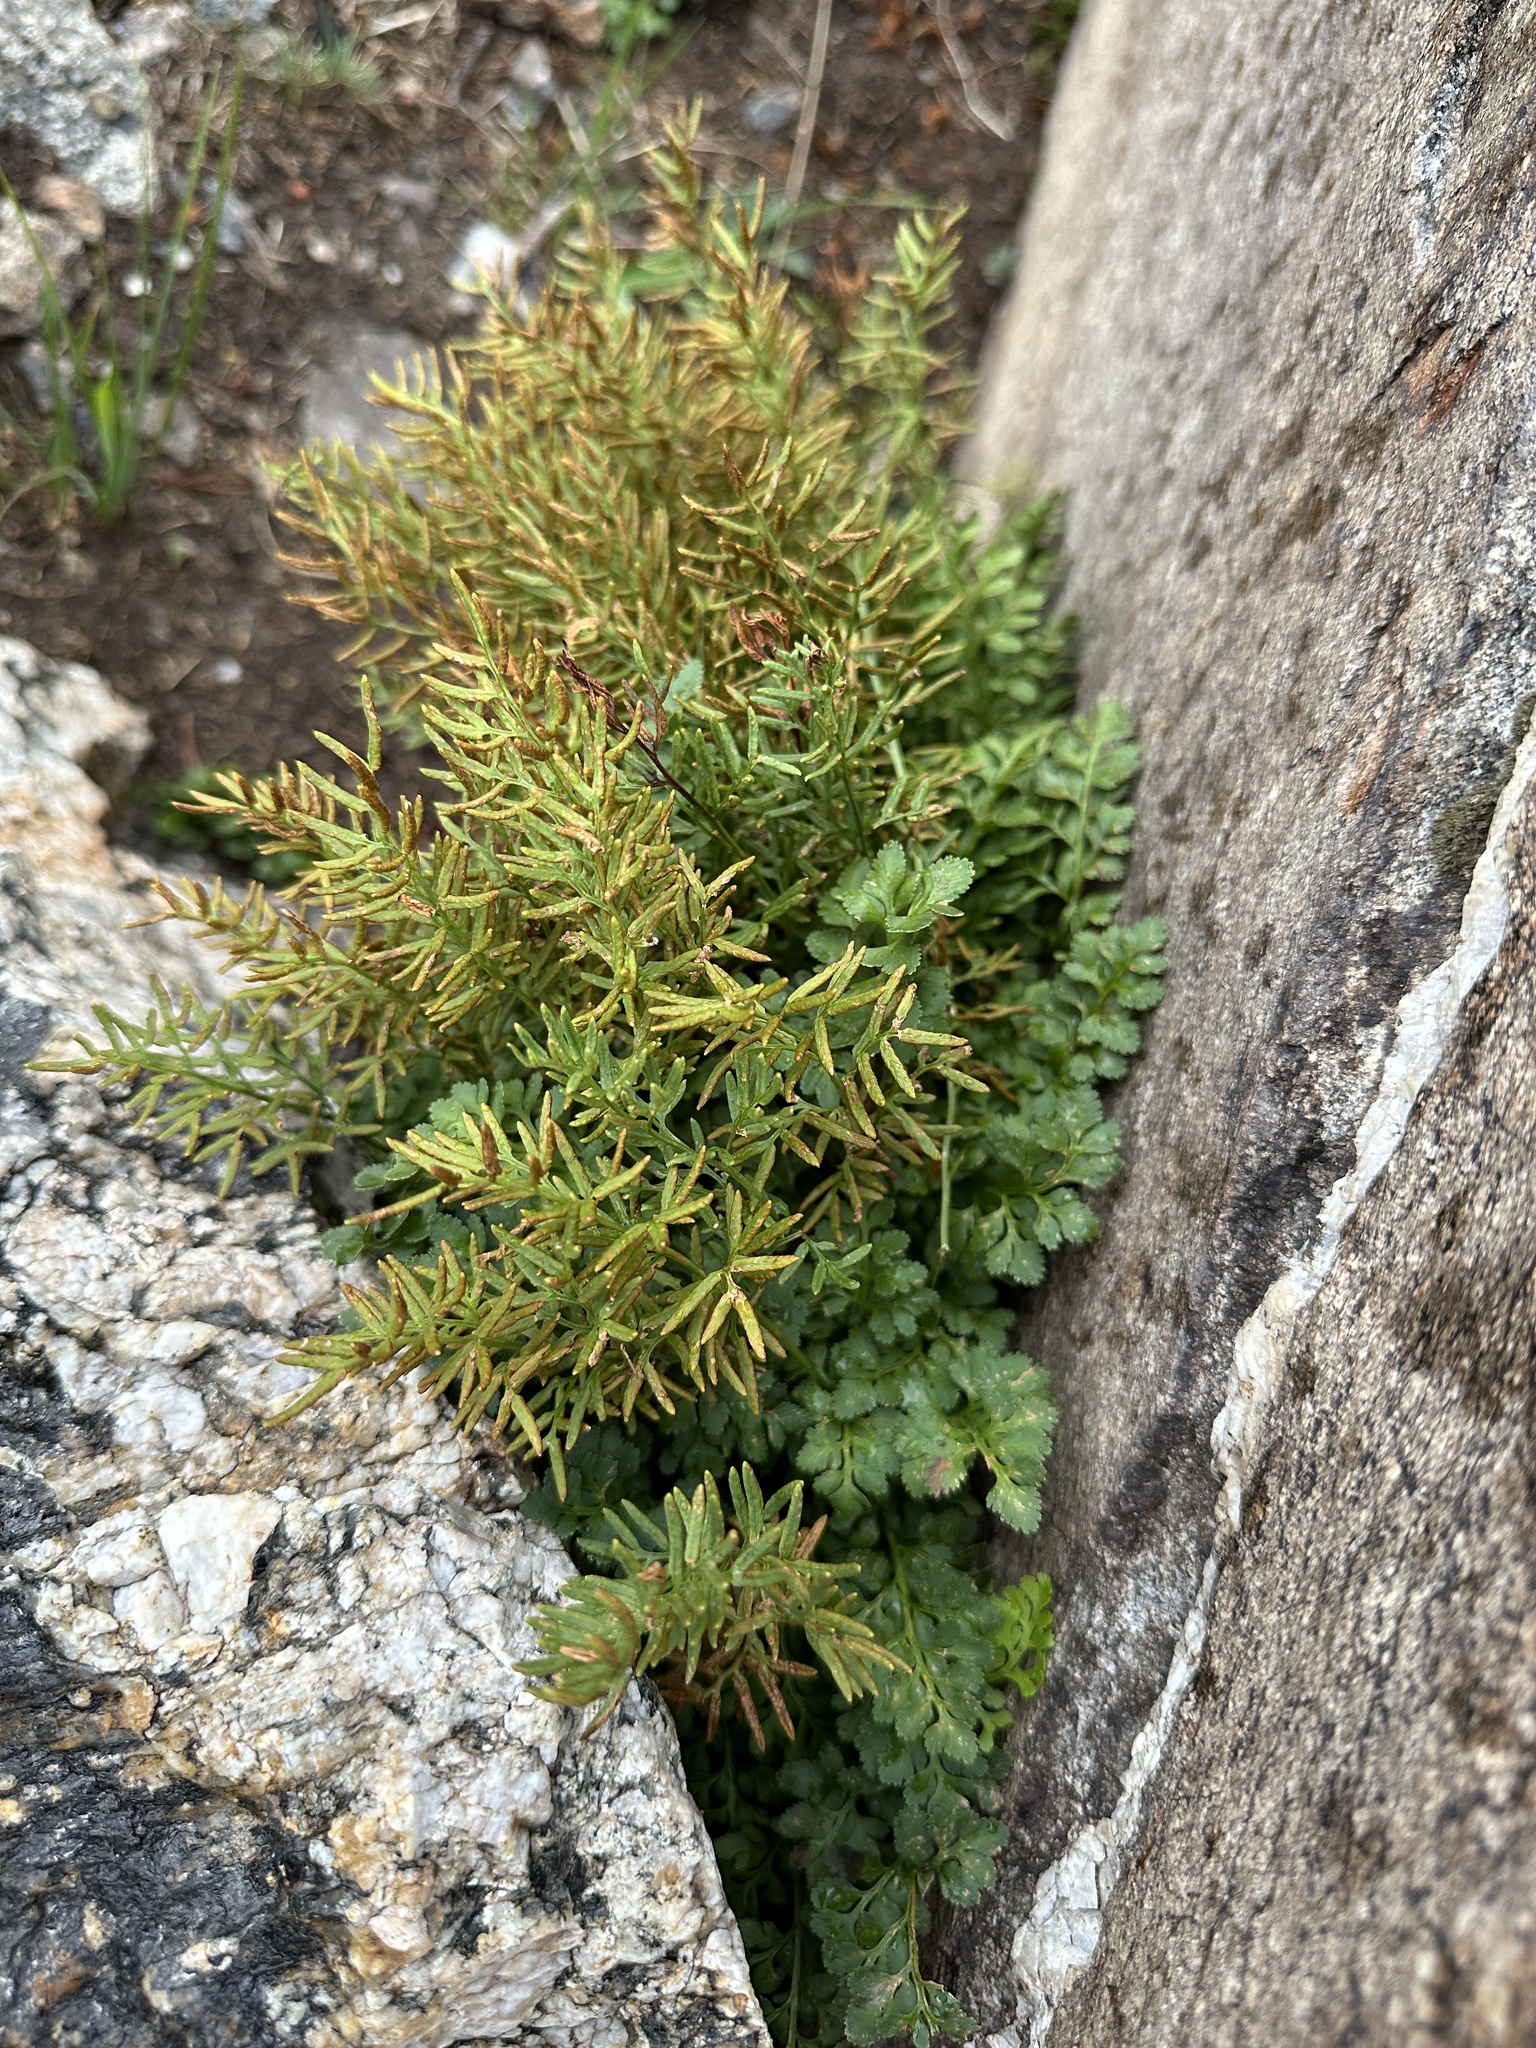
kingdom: Plantae
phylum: Tracheophyta
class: Polypodiopsida
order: Polypodiales
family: Pteridaceae
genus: Cryptogramma
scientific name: Cryptogramma acrostichoides
